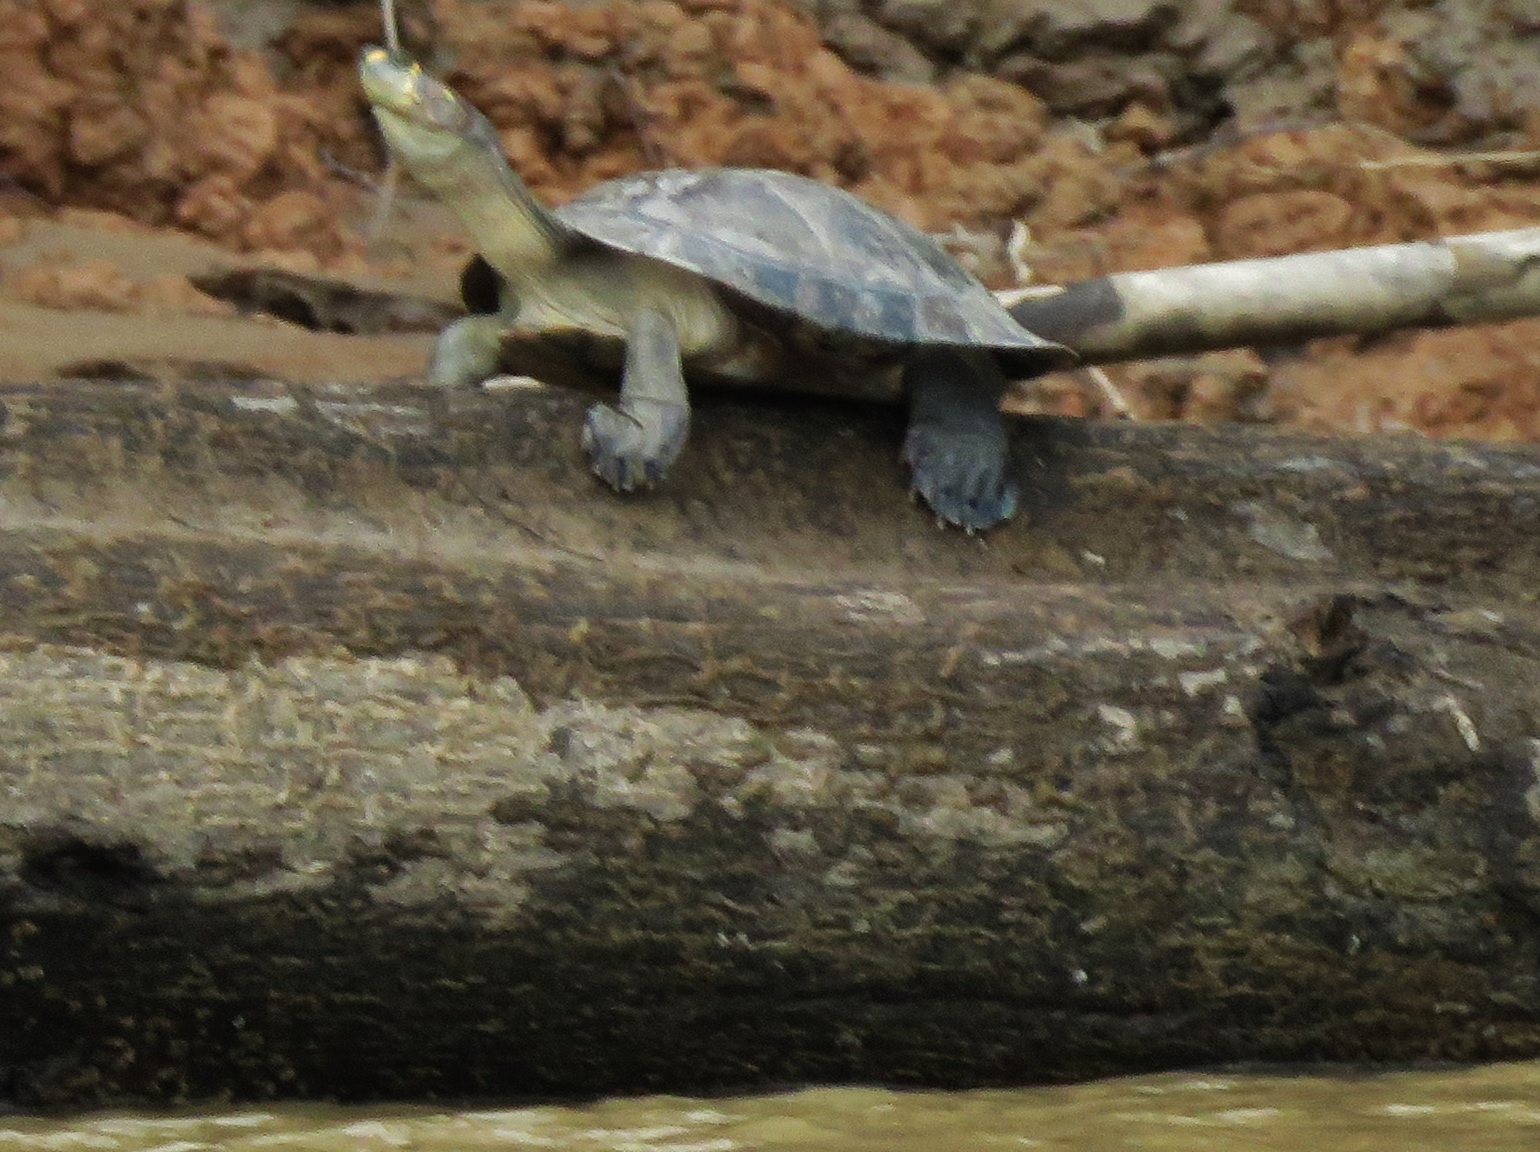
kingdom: Animalia
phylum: Chordata
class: Testudines
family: Podocnemididae
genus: Podocnemis
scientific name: Podocnemis unifilis
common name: Yellow-spotted amazon river turtle
